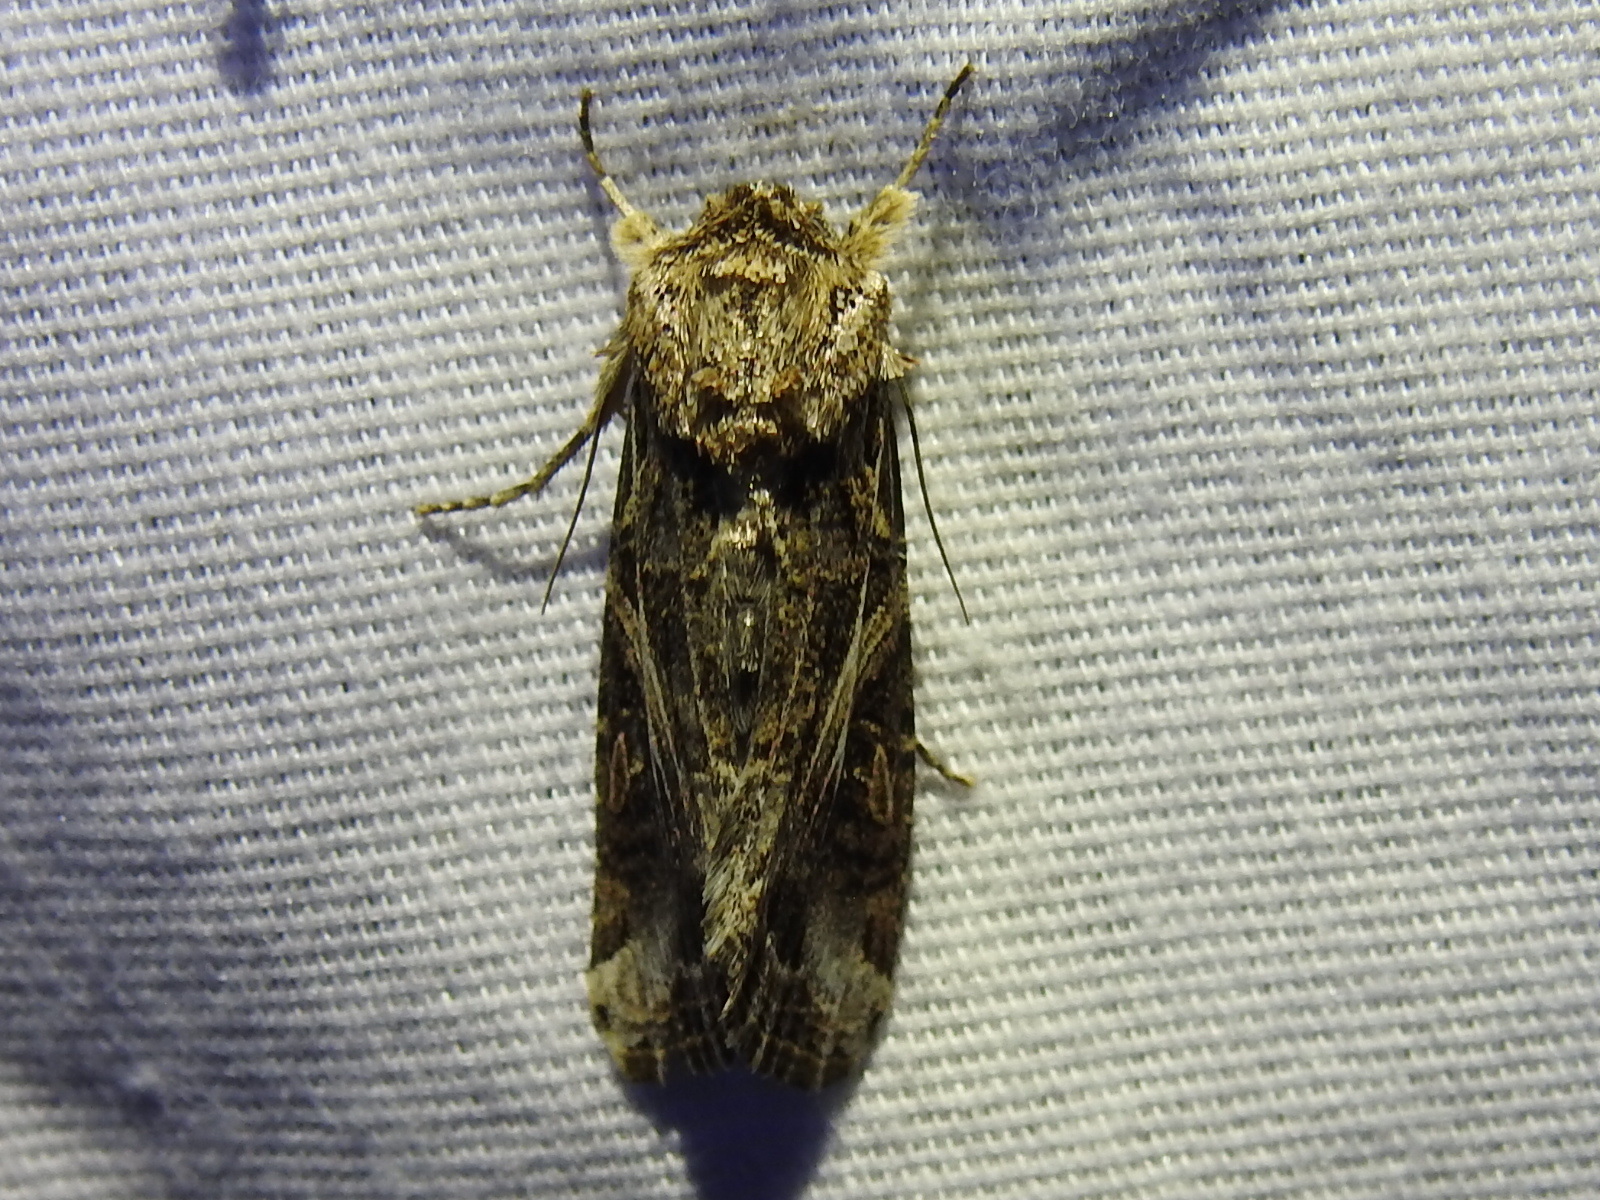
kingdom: Animalia
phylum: Arthropoda
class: Insecta
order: Lepidoptera
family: Noctuidae
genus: Spodoptera
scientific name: Spodoptera ornithogalli
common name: Yellow-striped armyworm
